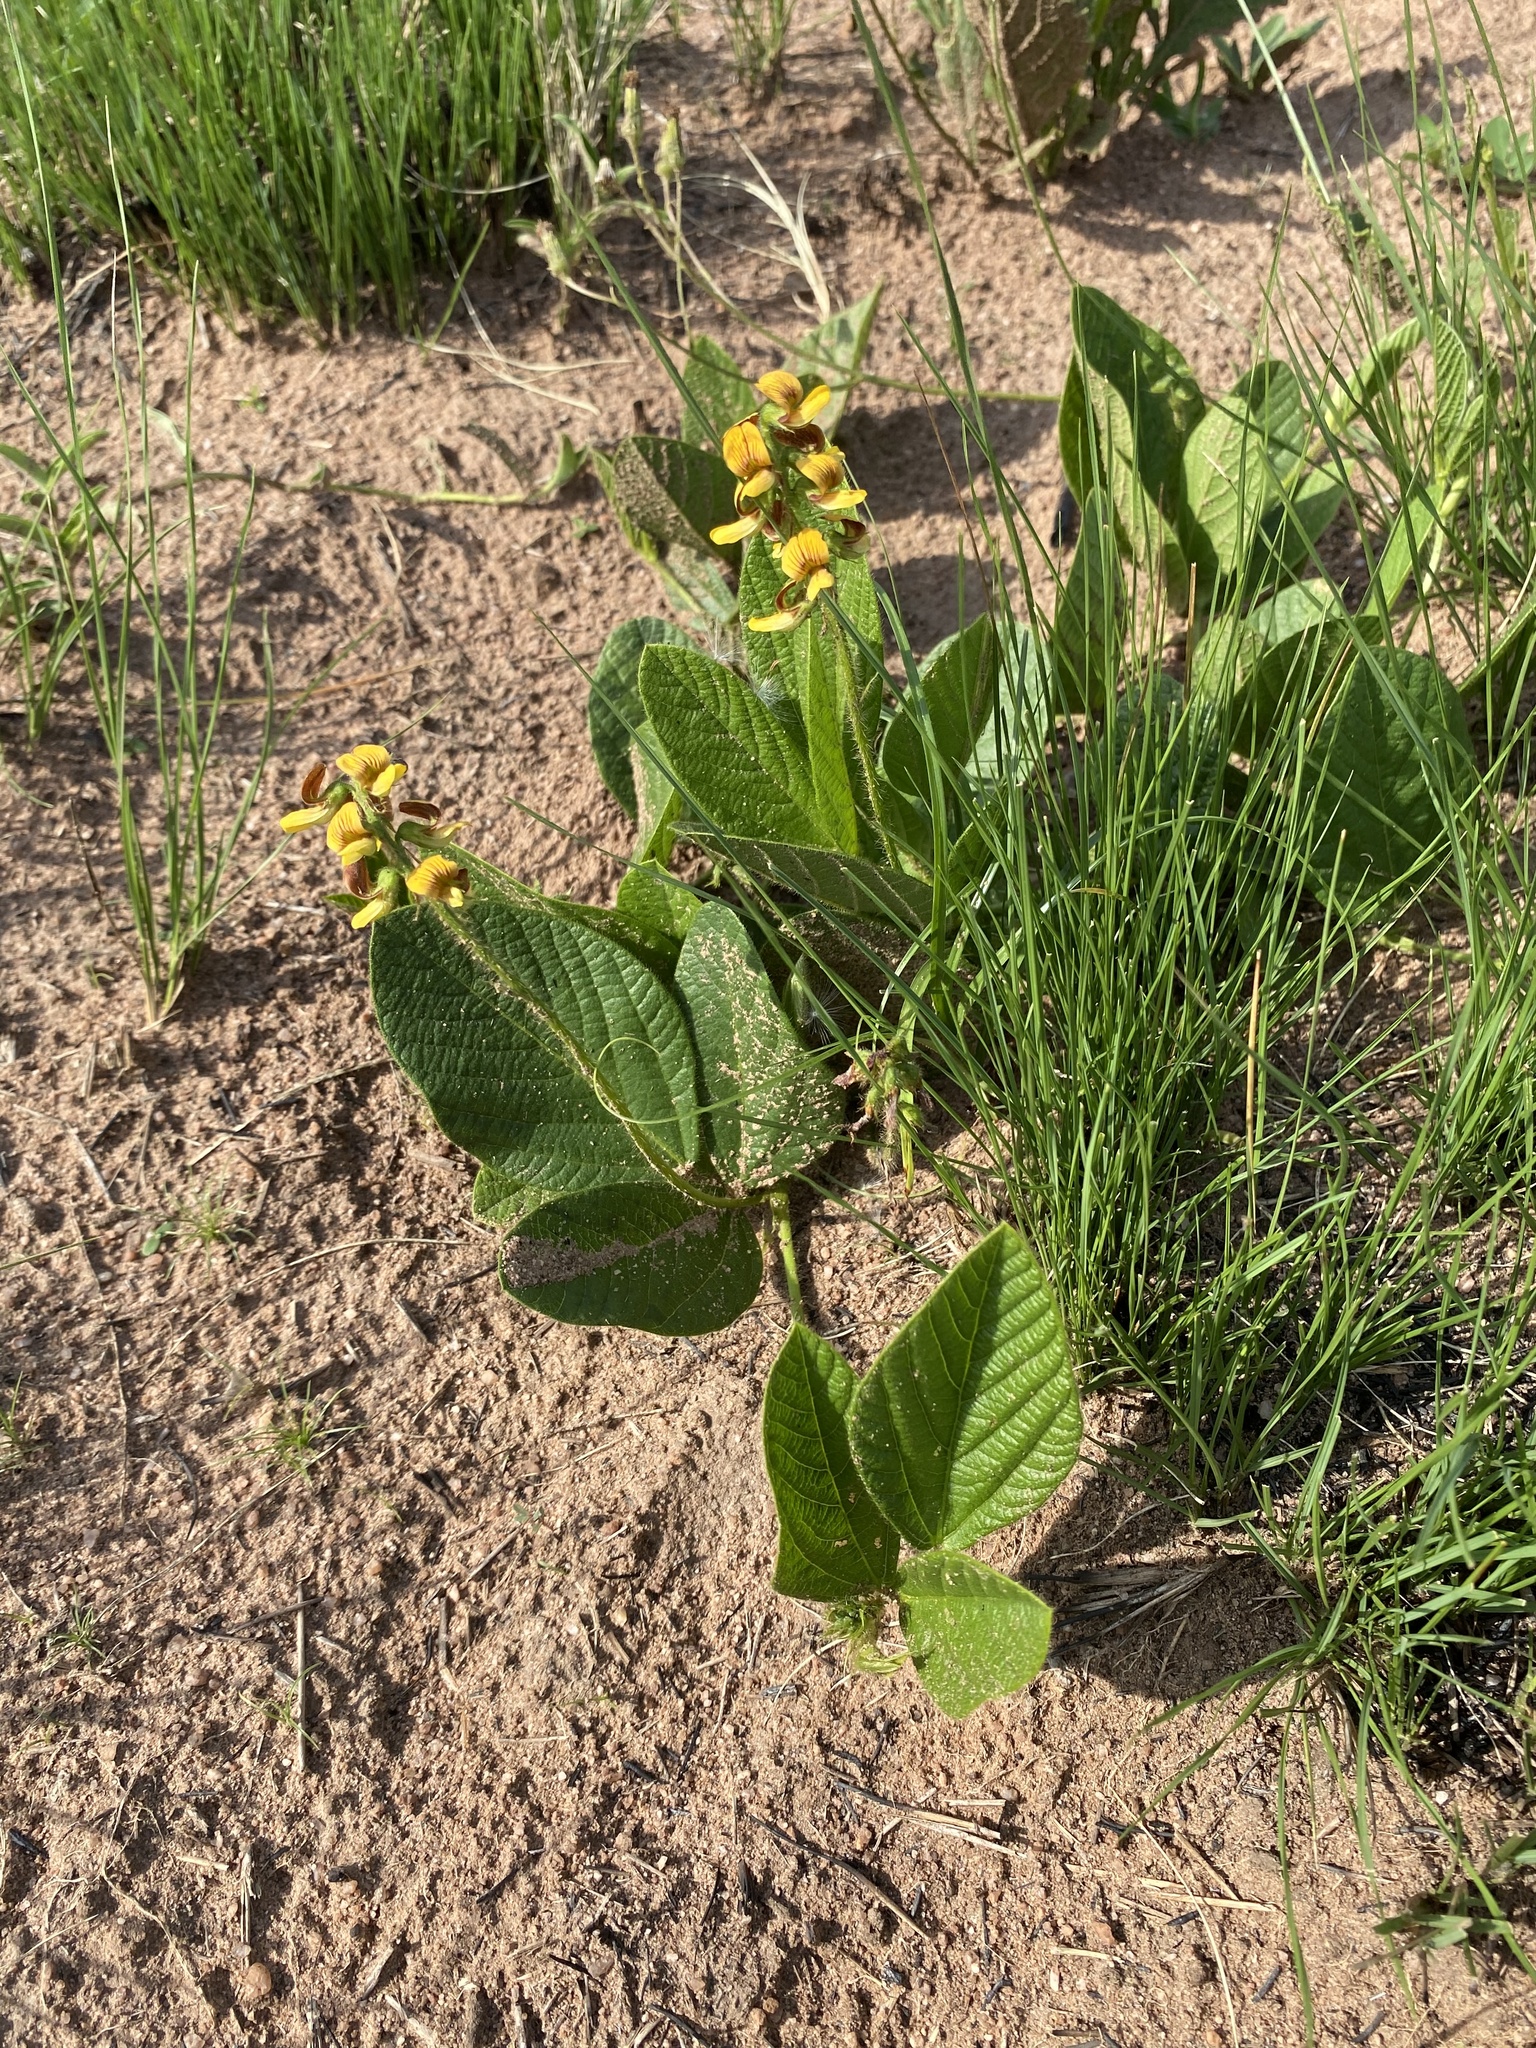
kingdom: Plantae
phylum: Tracheophyta
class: Magnoliopsida
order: Fabales
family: Fabaceae
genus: Eriosema
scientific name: Eriosema cordatum
